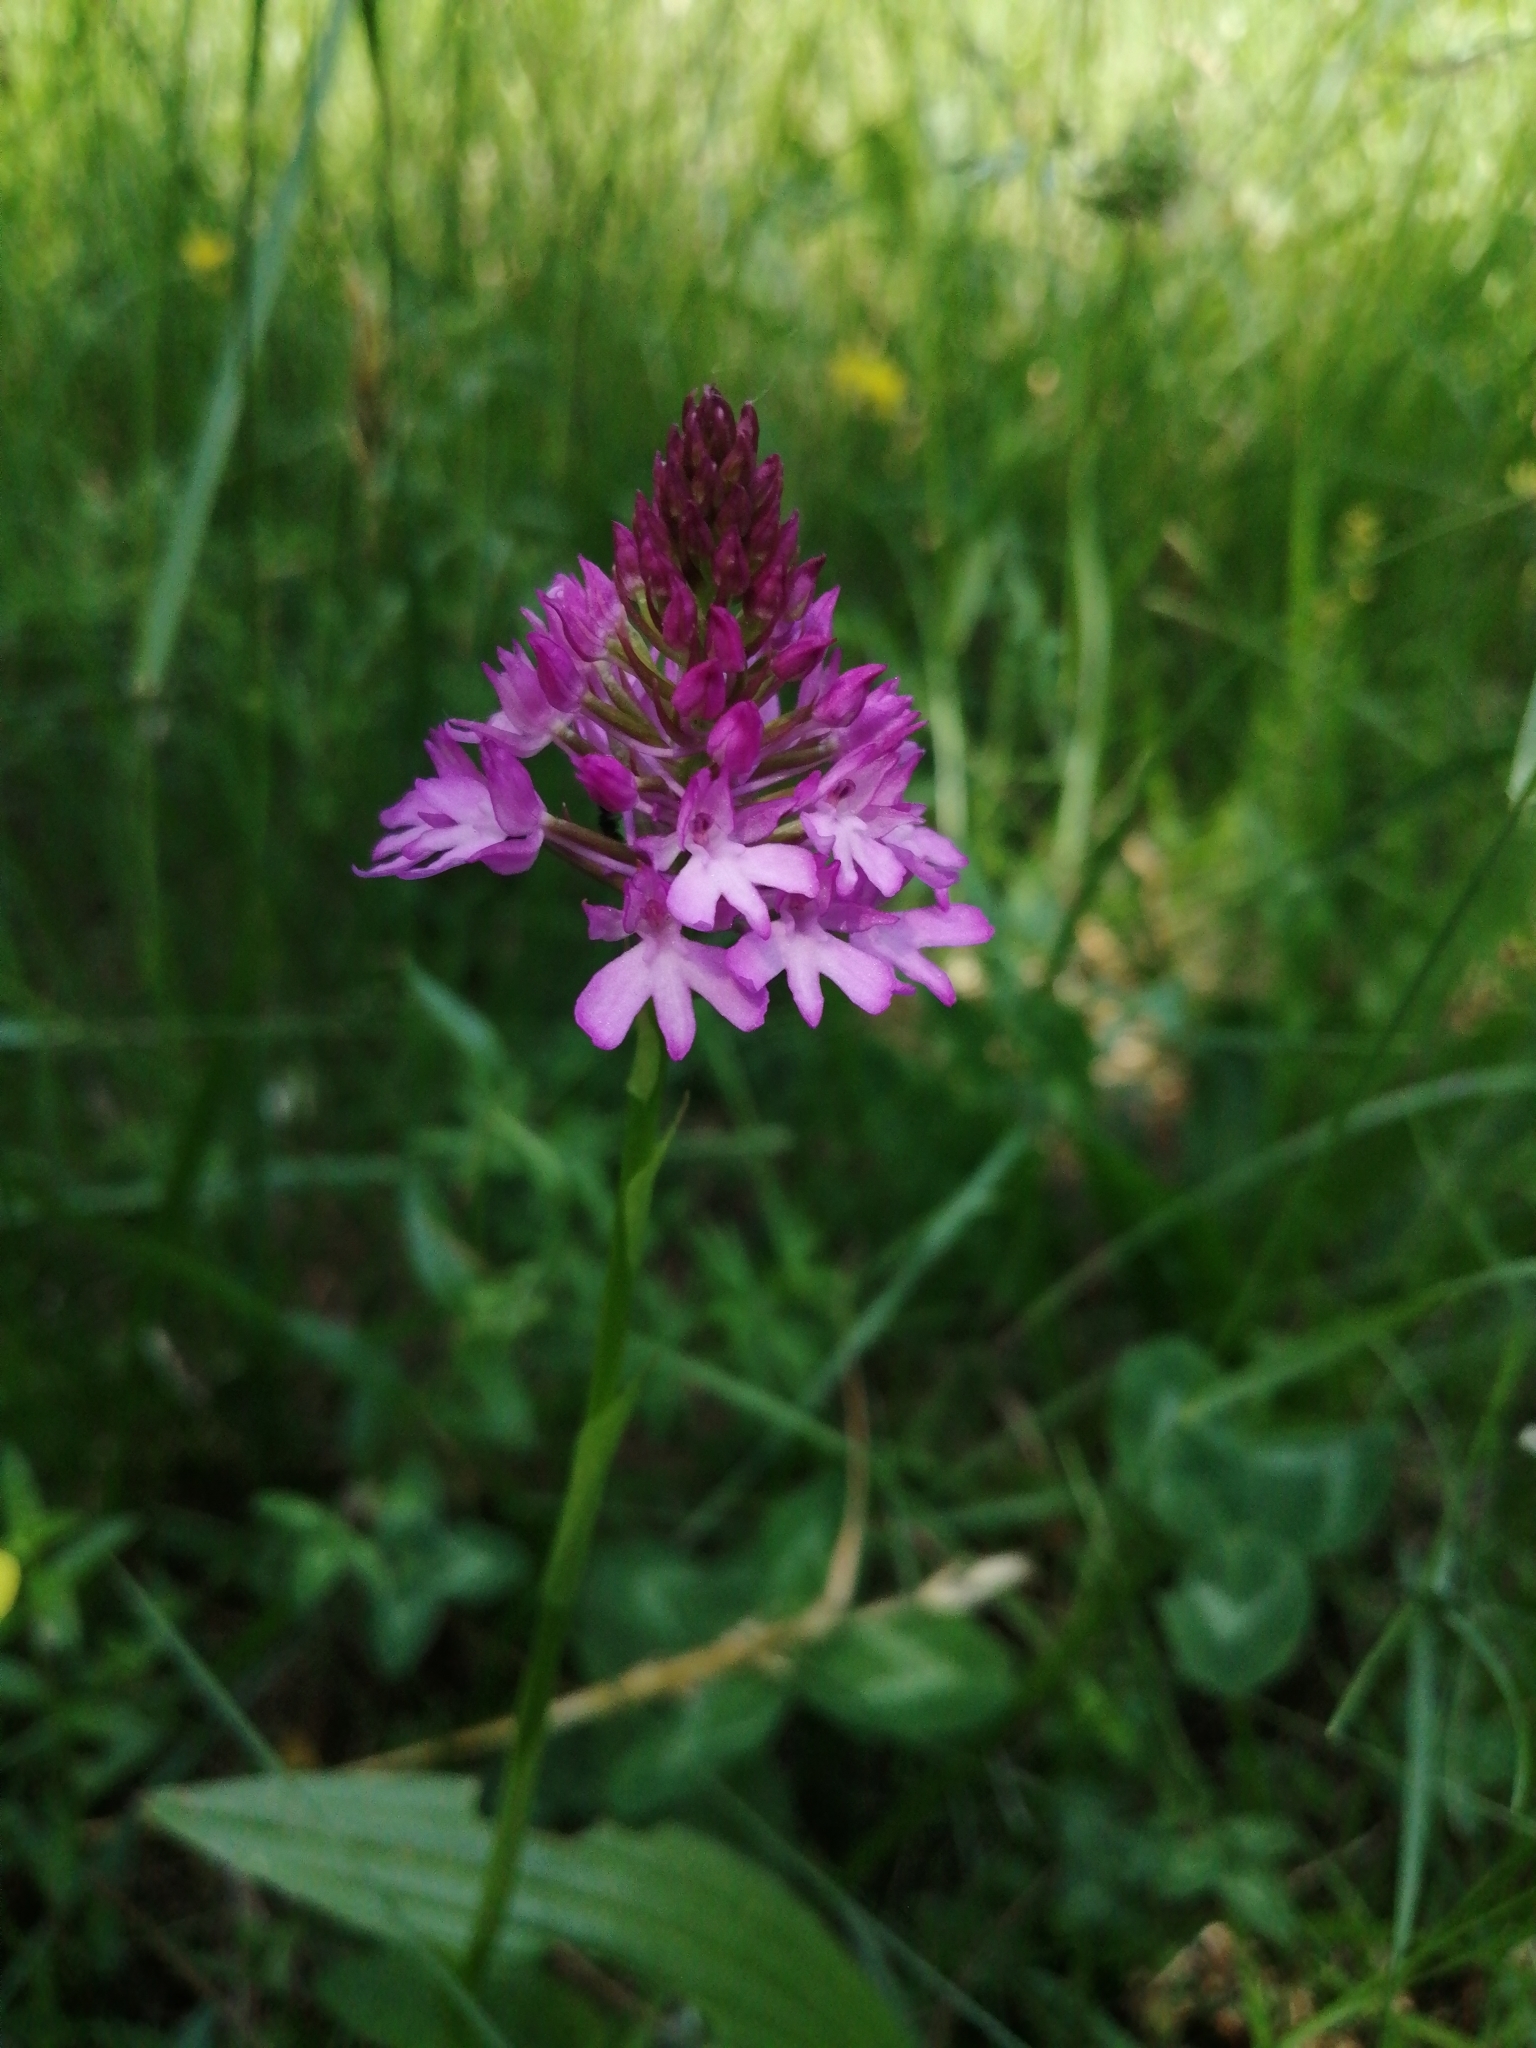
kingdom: Plantae
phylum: Tracheophyta
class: Liliopsida
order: Asparagales
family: Orchidaceae
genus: Anacamptis
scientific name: Anacamptis pyramidalis
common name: Pyramidal orchid
